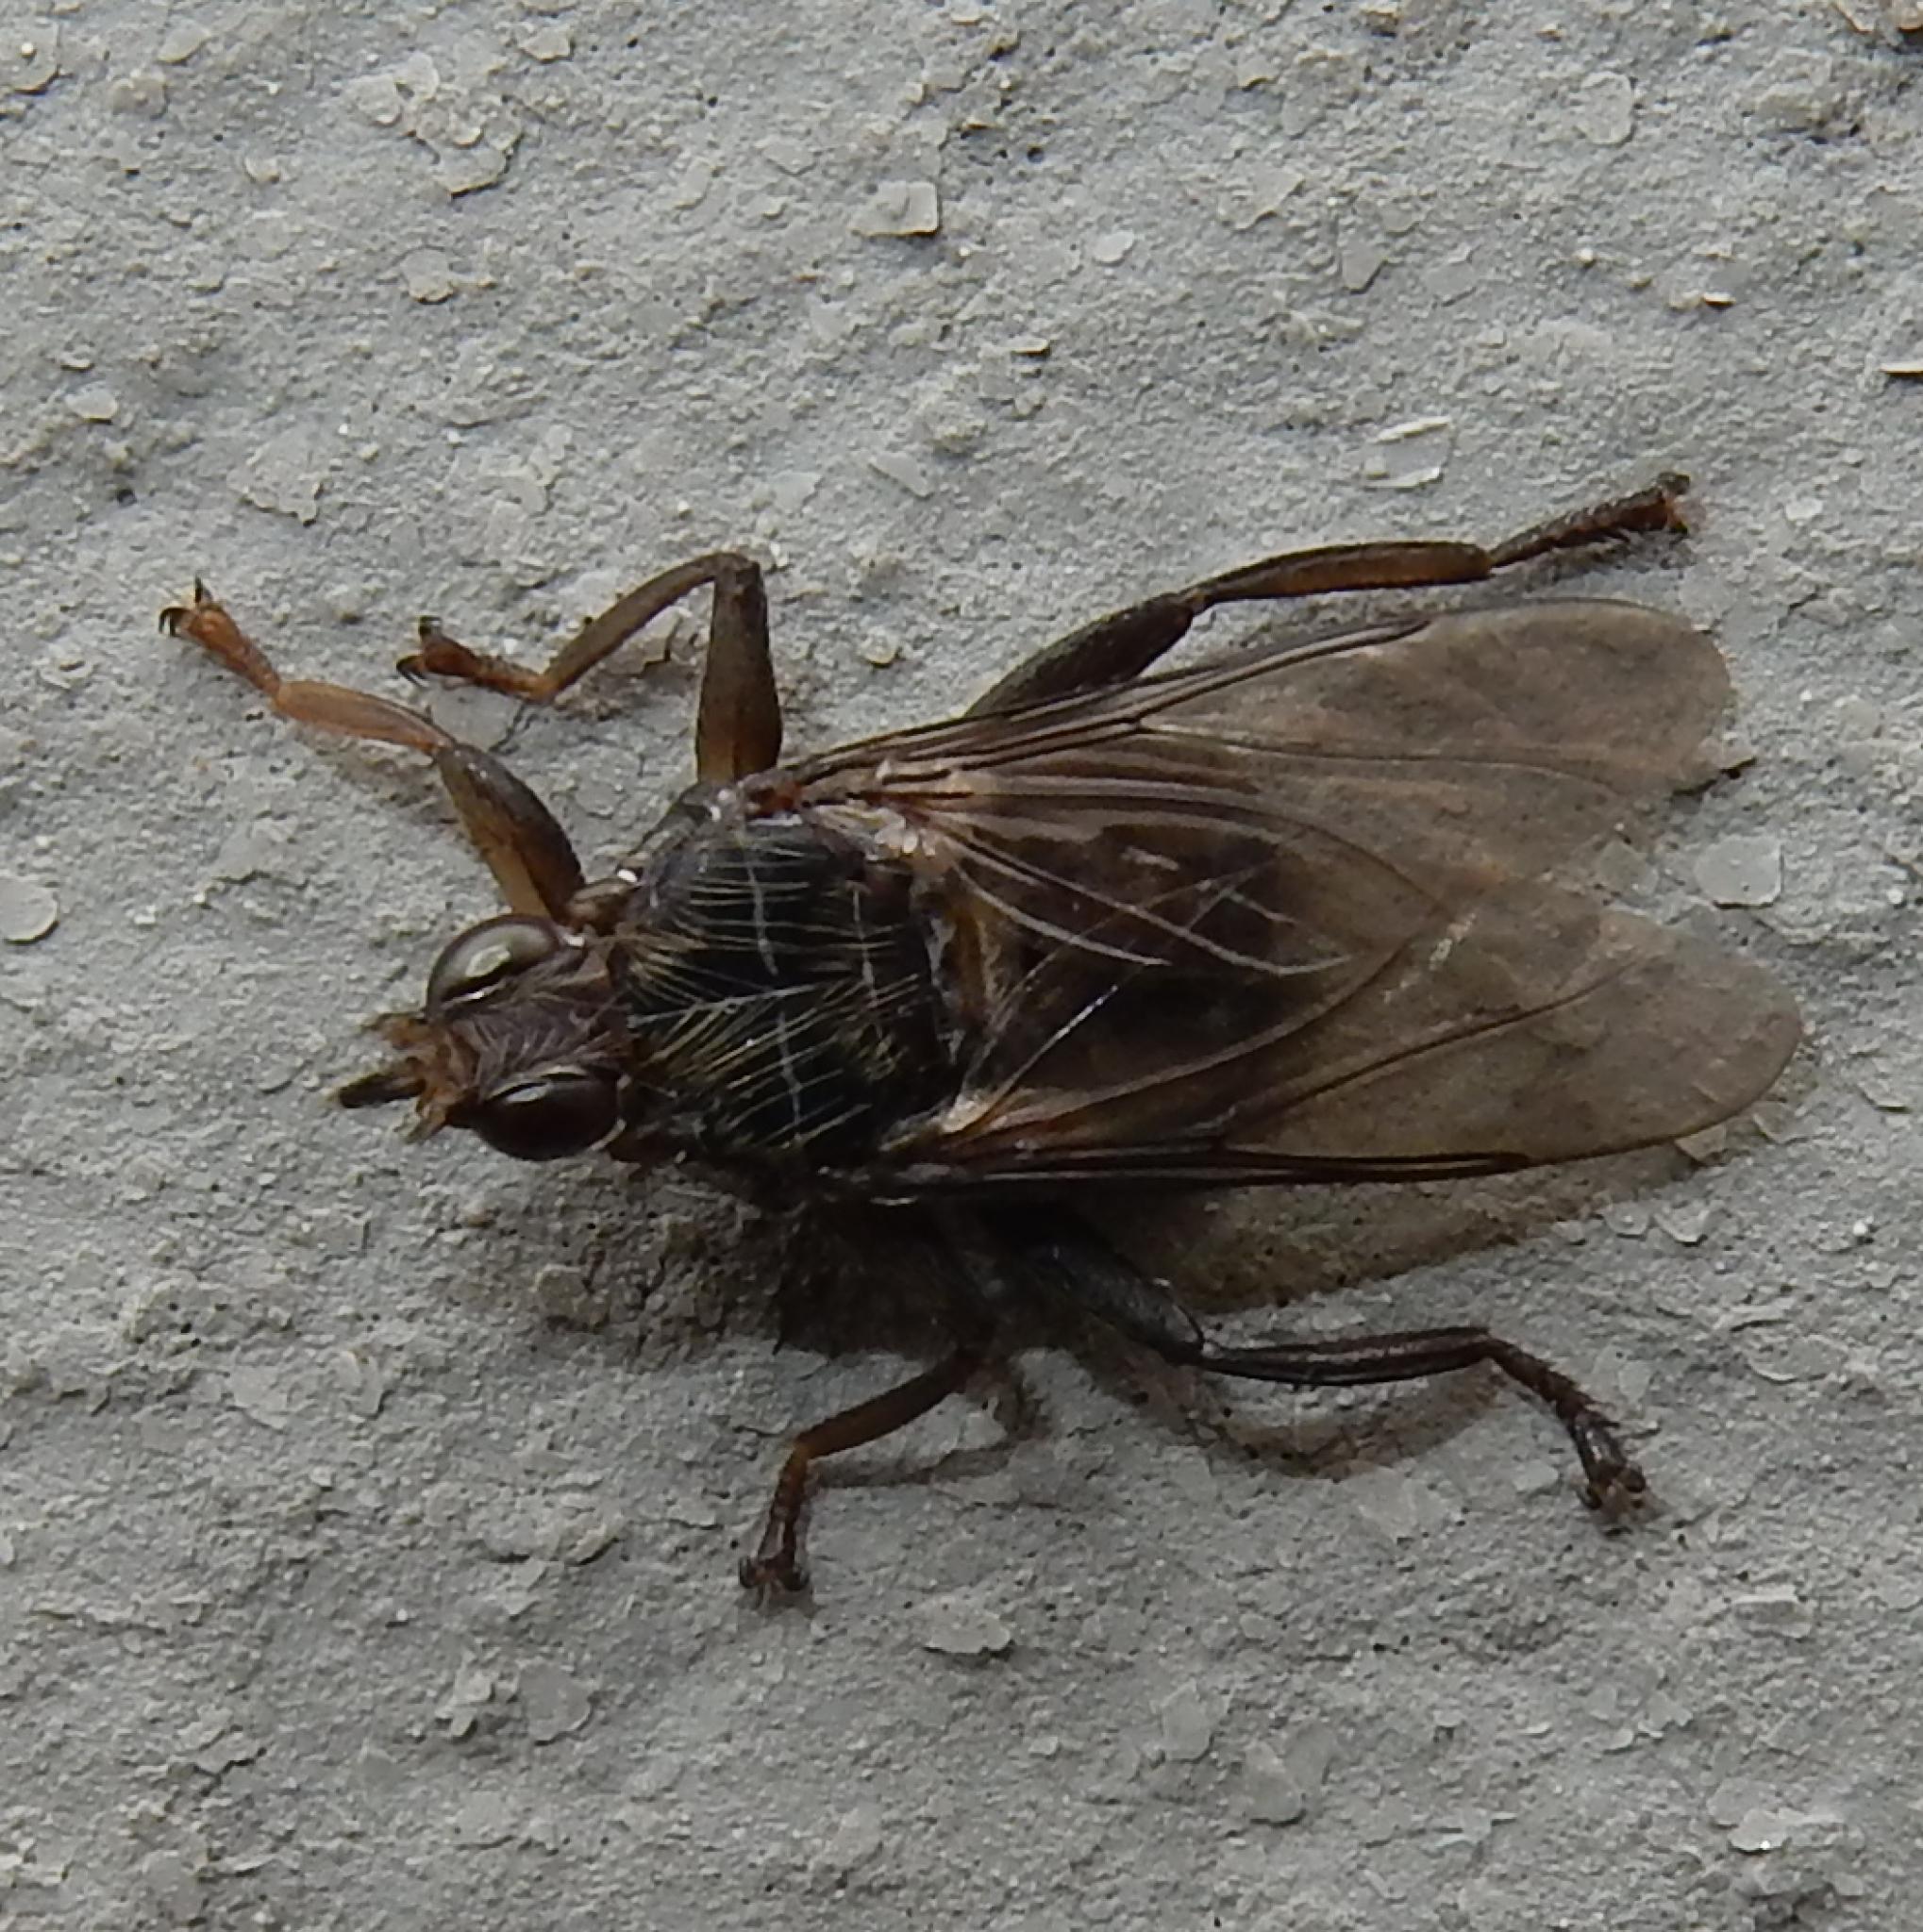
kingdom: Animalia
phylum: Arthropoda
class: Insecta
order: Diptera
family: Hippoboscidae
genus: Pseudolynchia
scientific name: Pseudolynchia canariensis
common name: Louse fly
